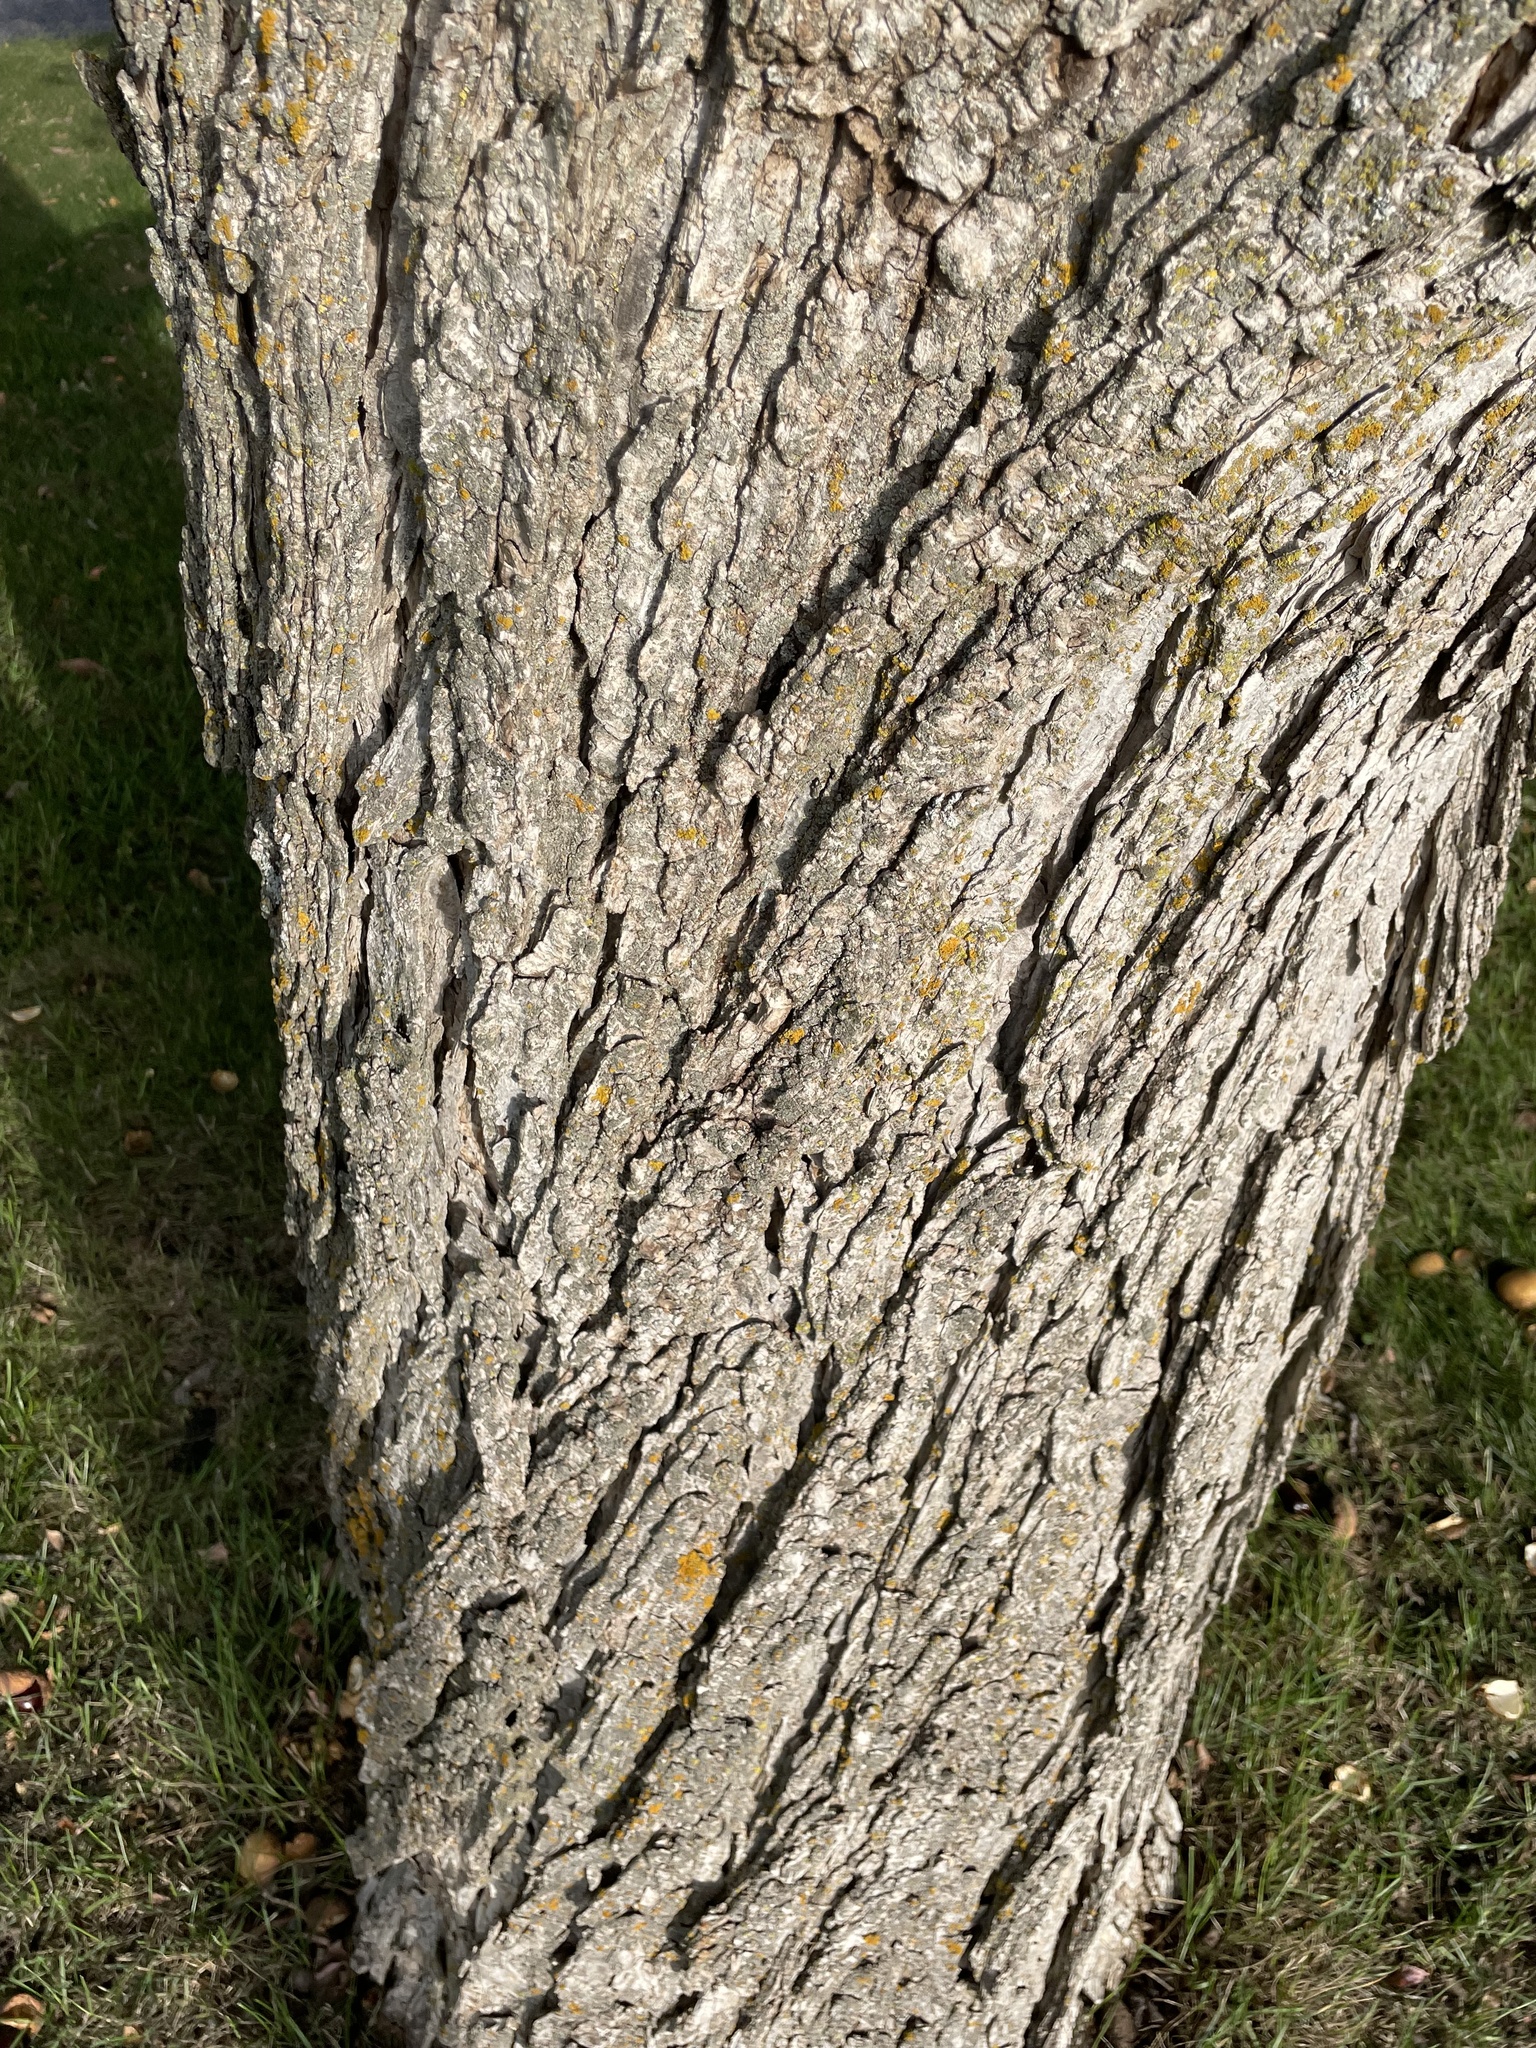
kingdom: Plantae
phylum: Tracheophyta
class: Magnoliopsida
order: Sapindales
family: Sapindaceae
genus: Aesculus
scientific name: Aesculus glabra
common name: Ohio buckeye
